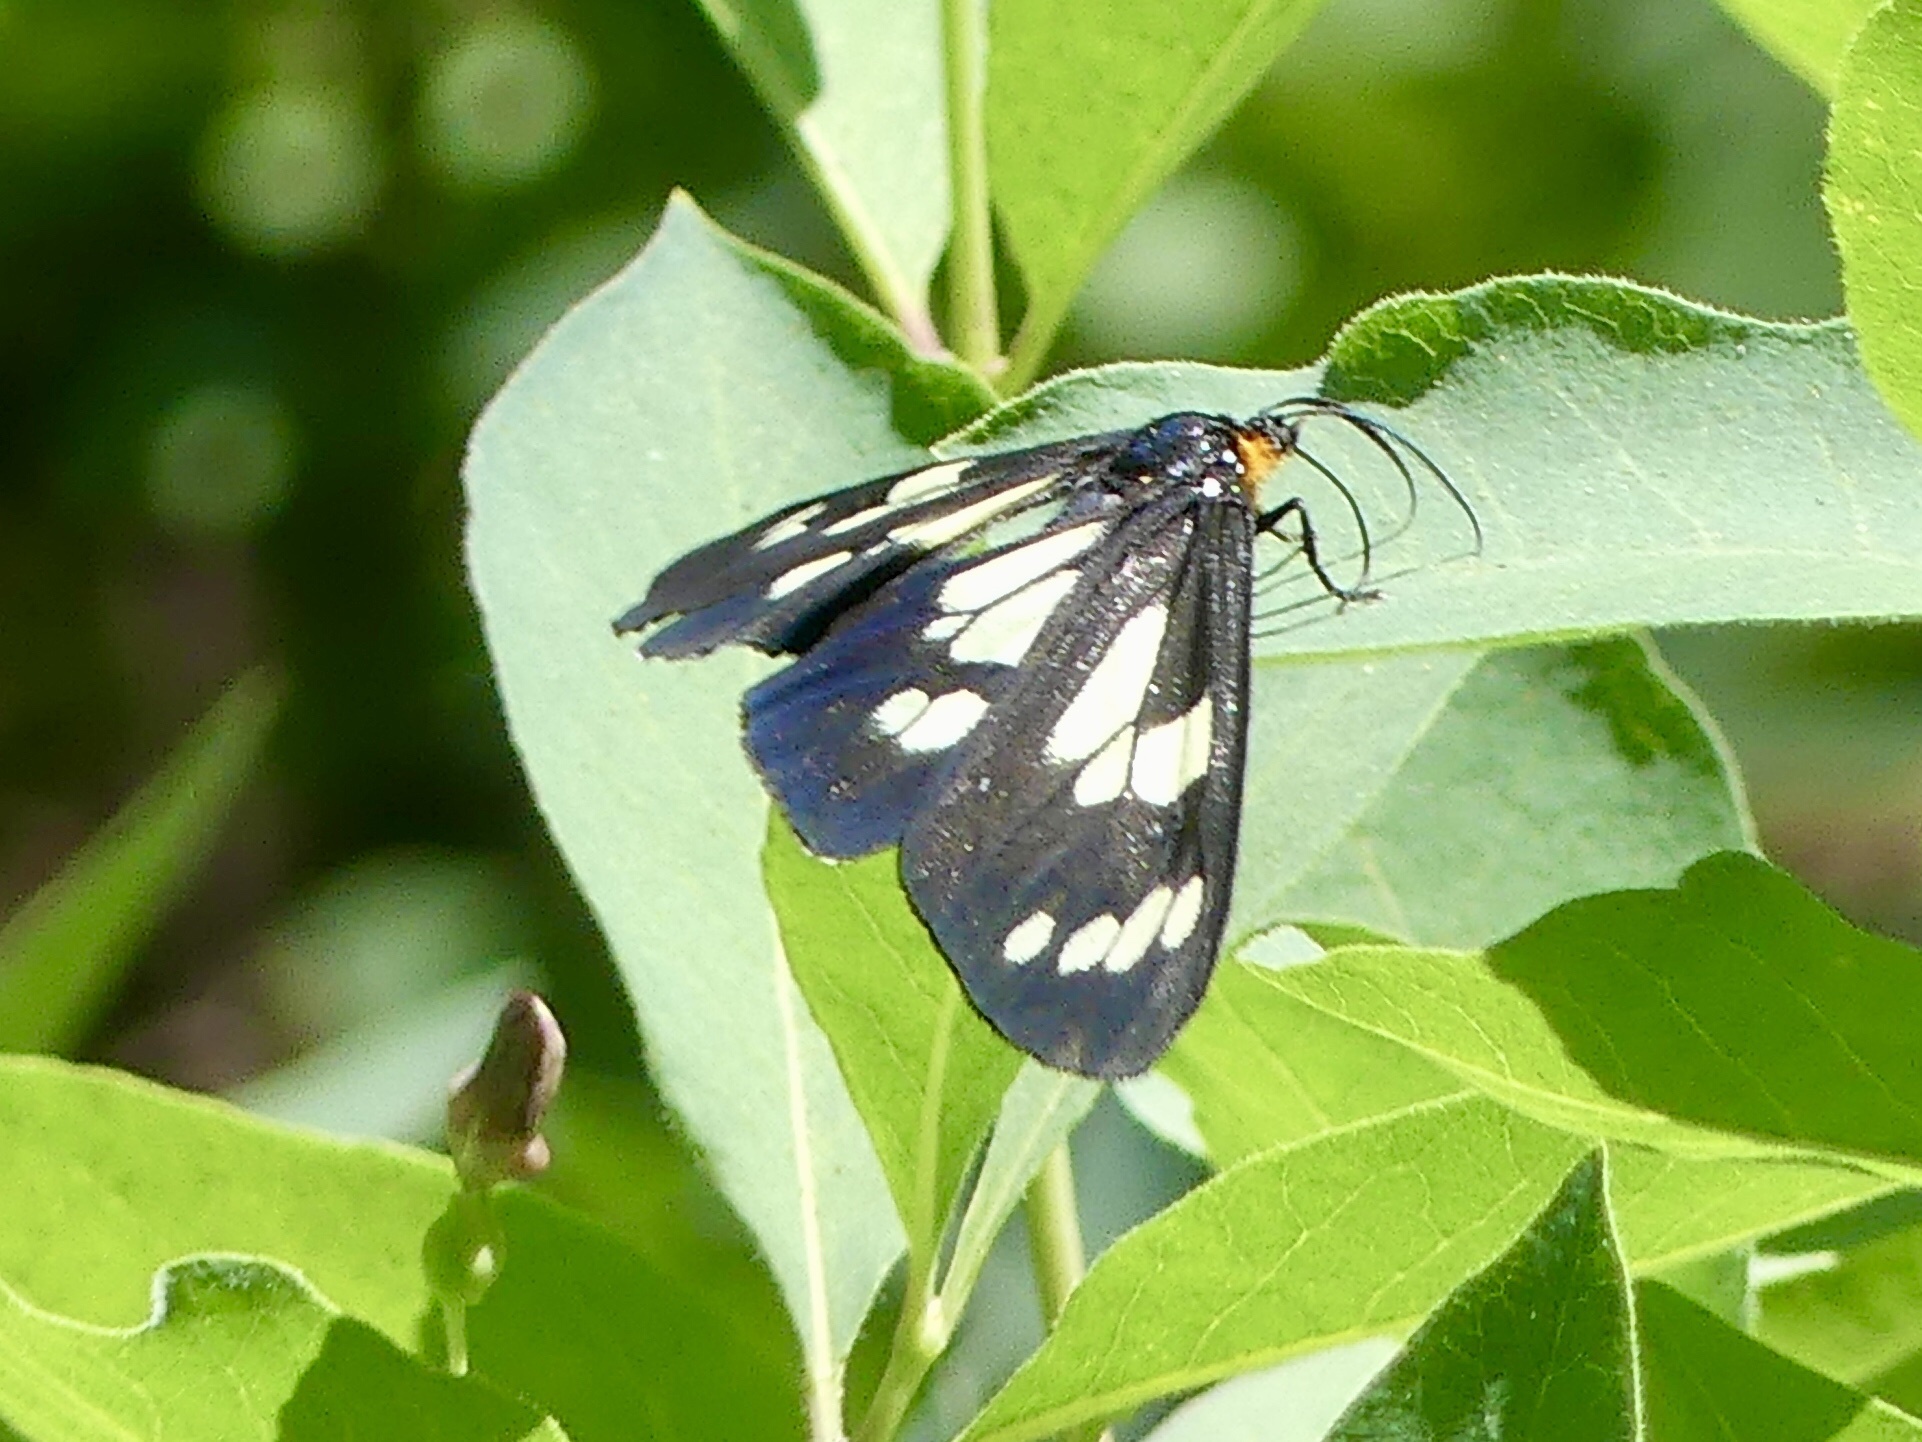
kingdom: Animalia
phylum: Arthropoda
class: Insecta
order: Lepidoptera
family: Erebidae
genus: Gnophaela
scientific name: Gnophaela latipennis
